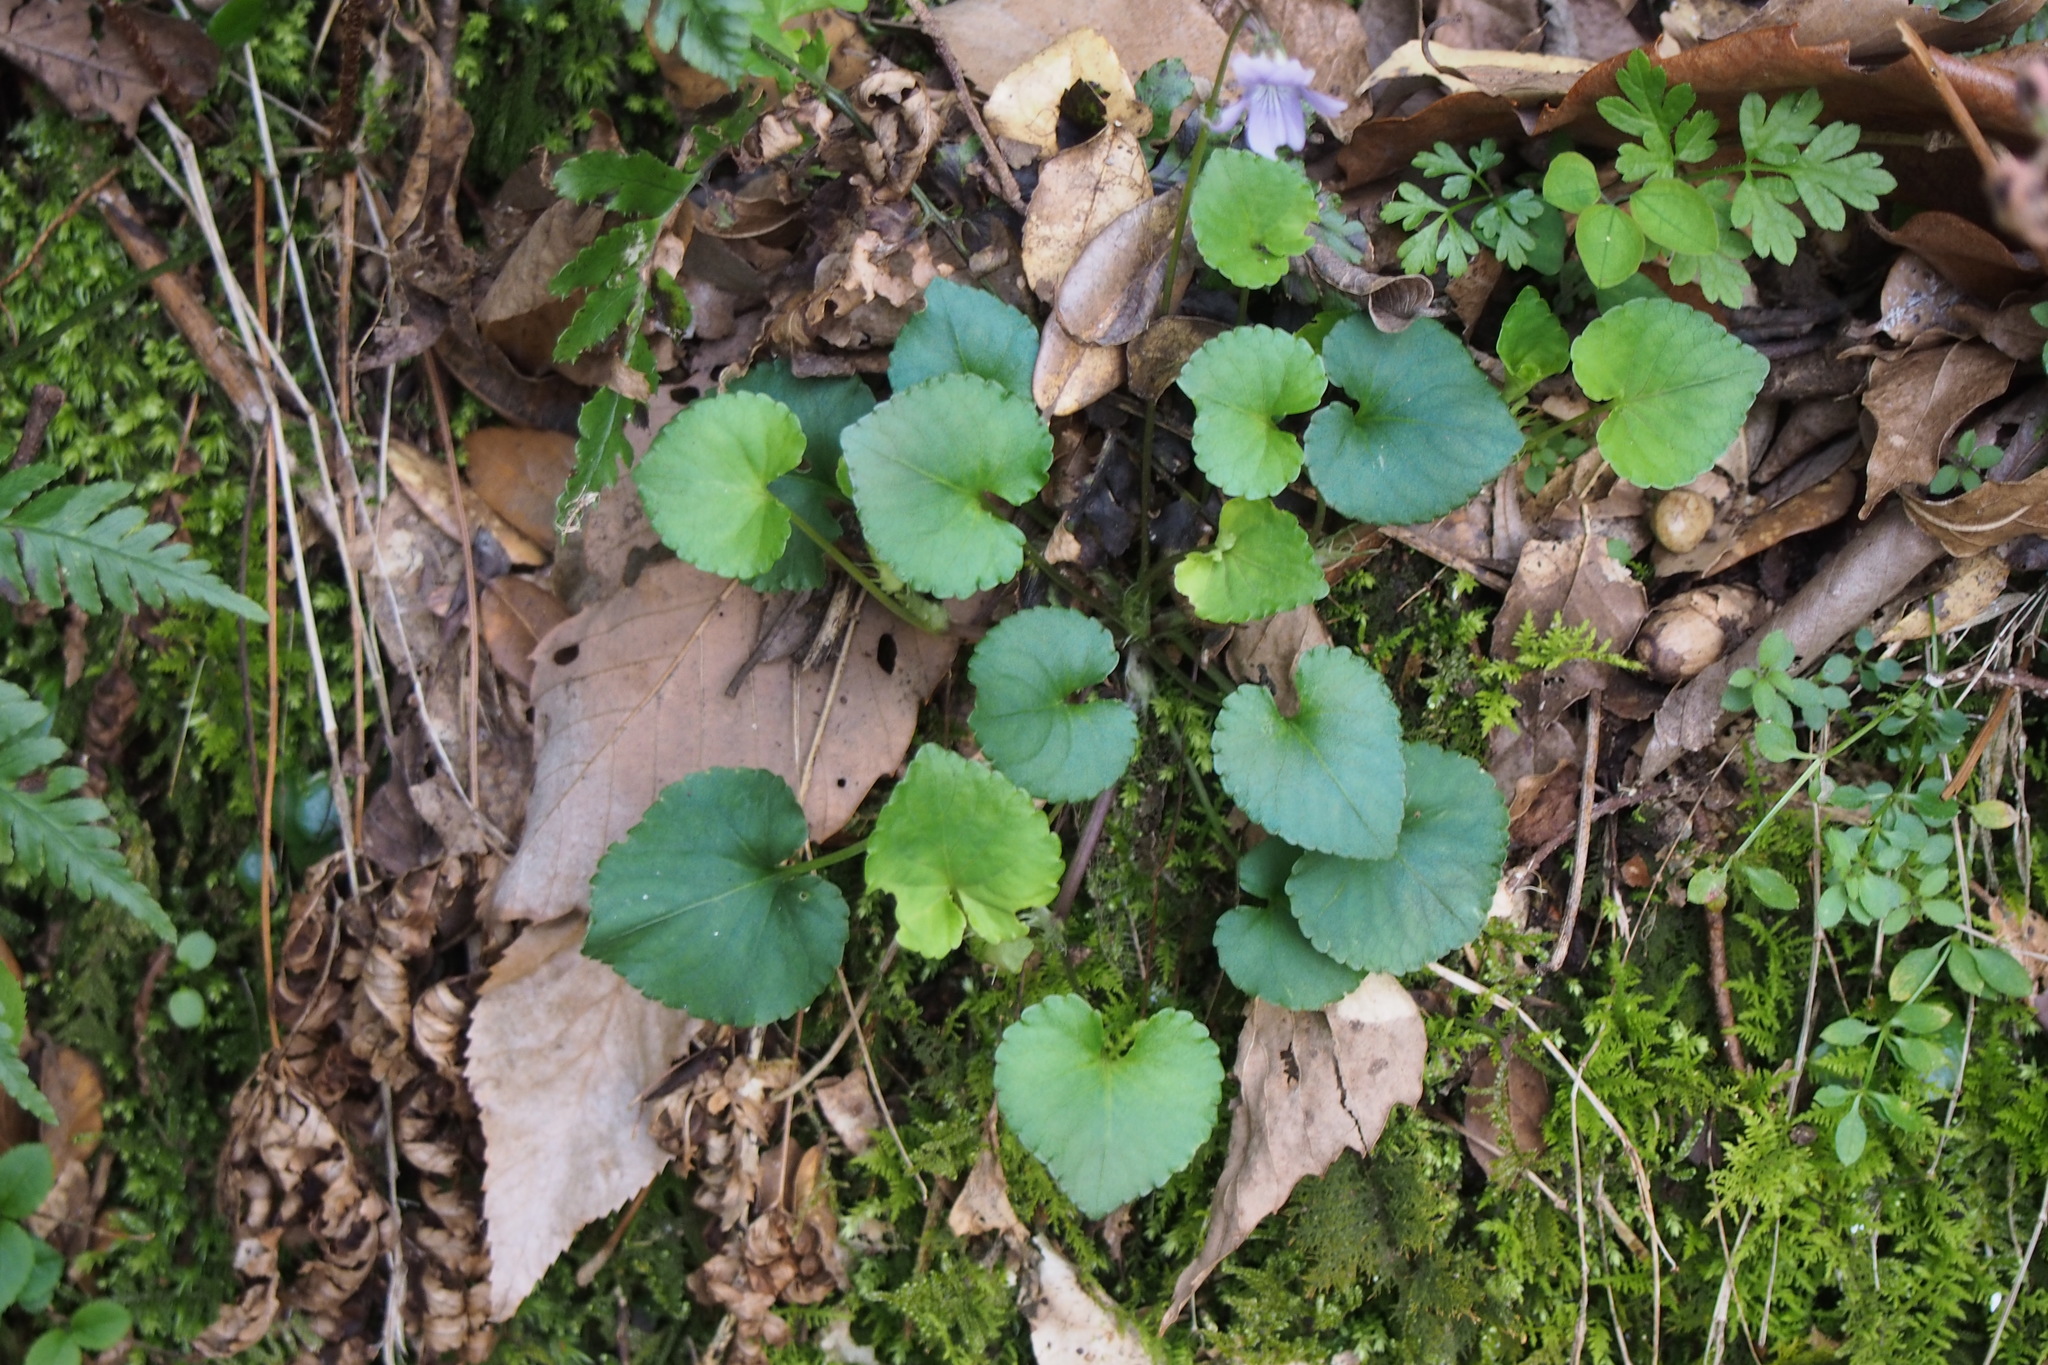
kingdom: Plantae
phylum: Tracheophyta
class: Magnoliopsida
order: Malpighiales
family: Violaceae
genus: Viola
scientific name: Viola grypoceras
